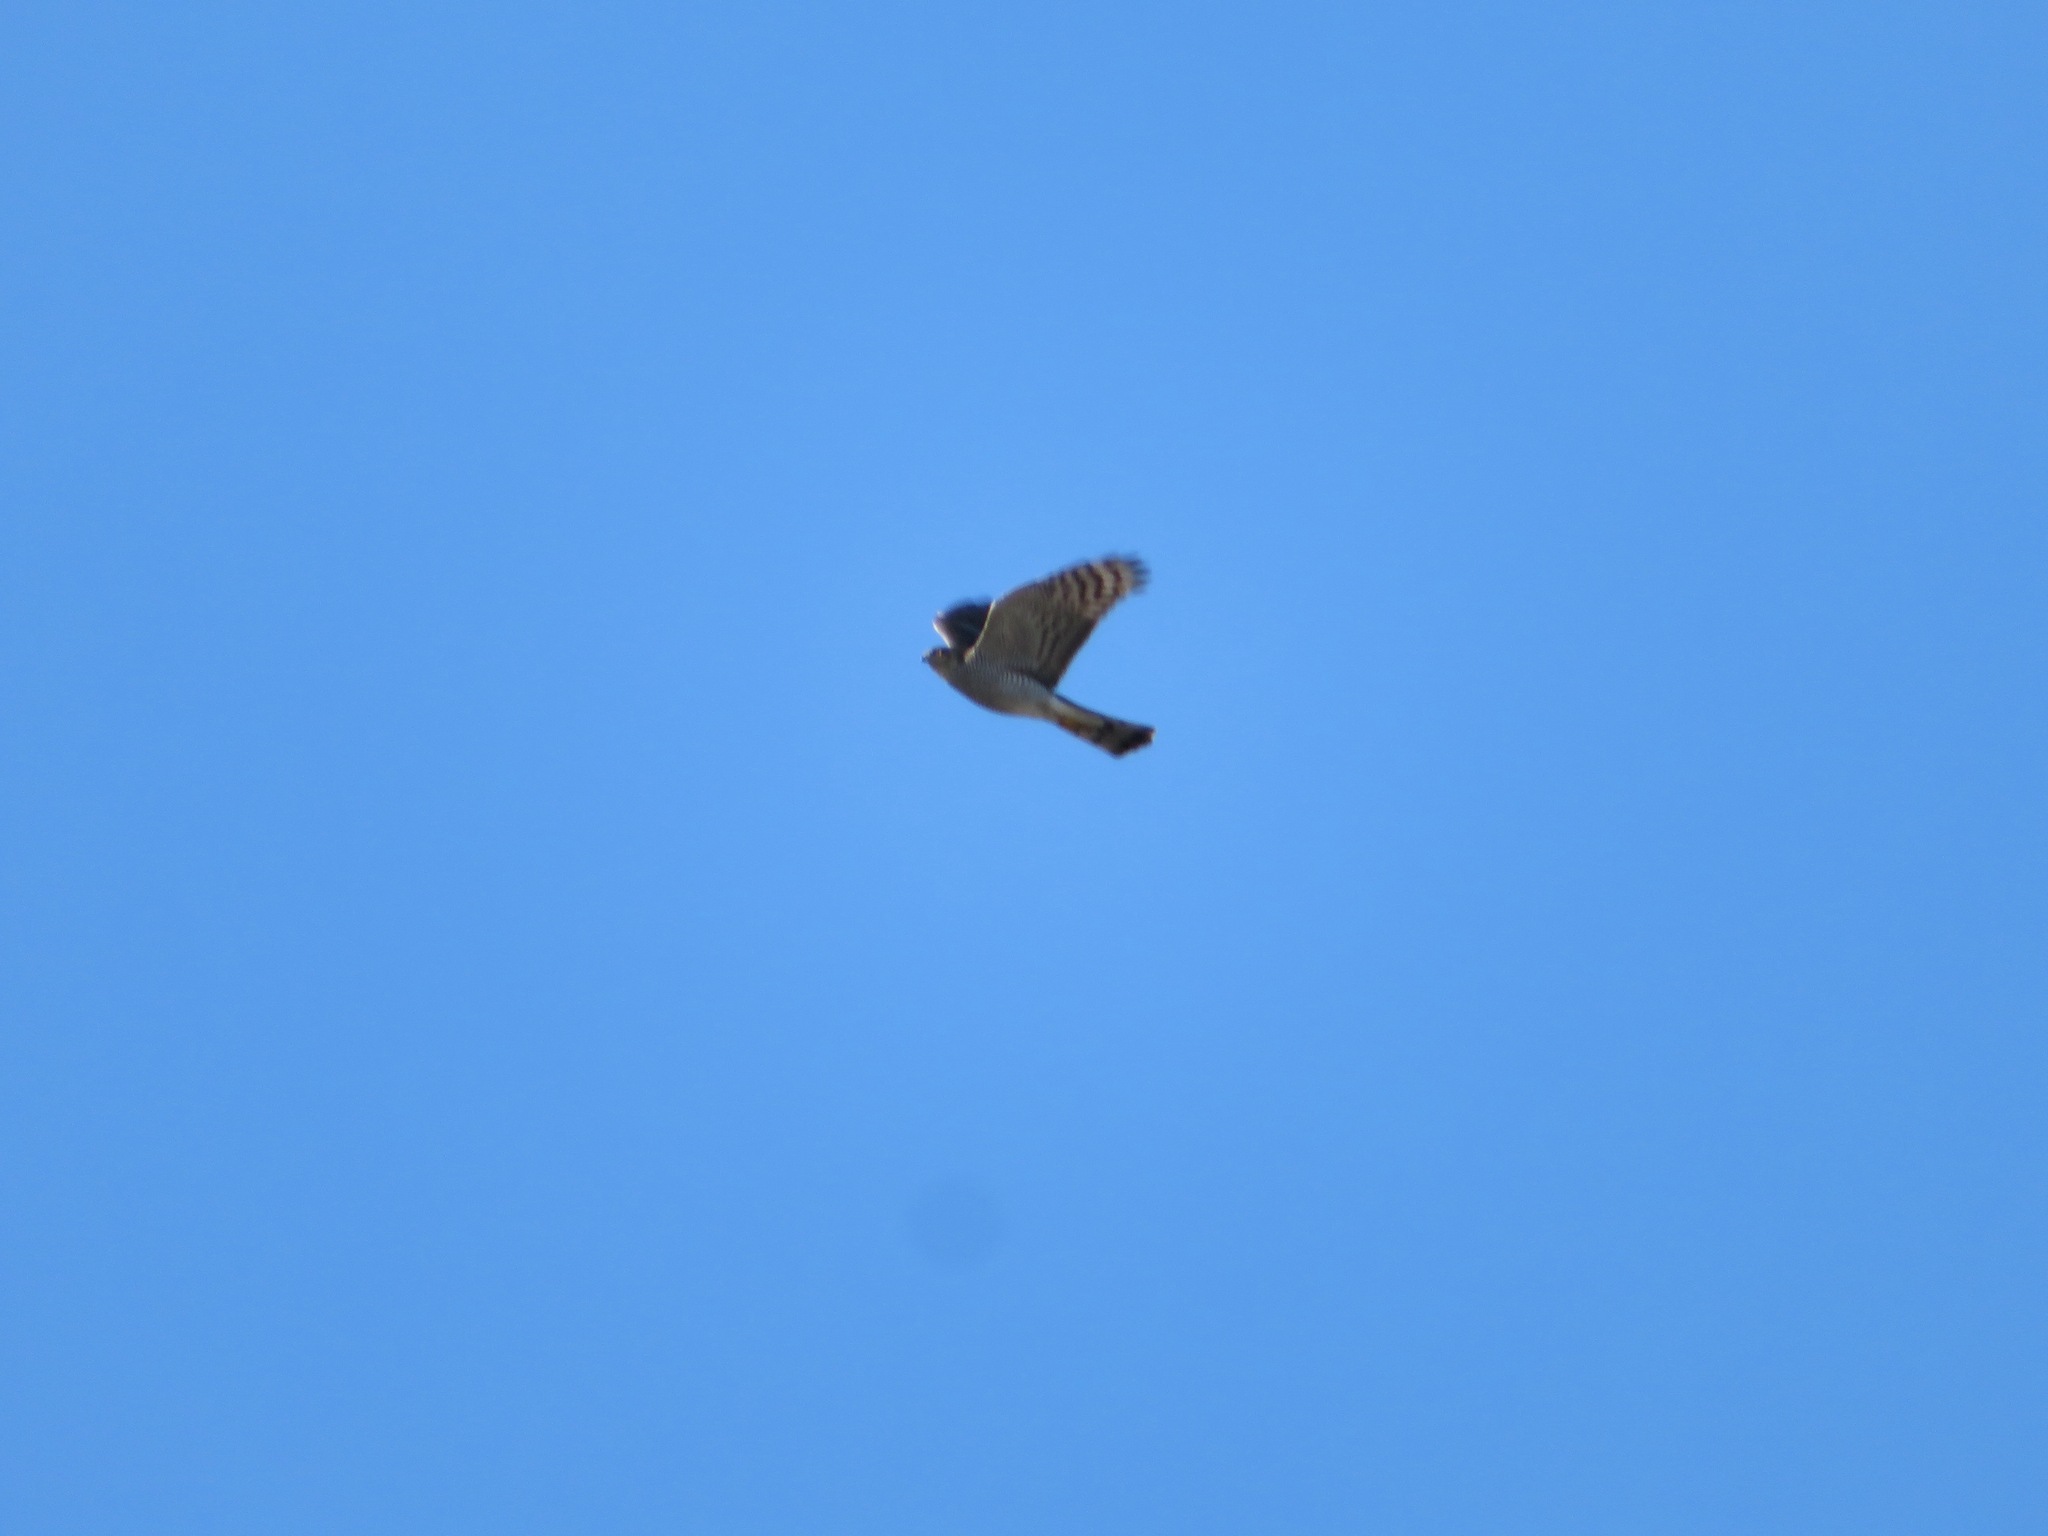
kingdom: Animalia
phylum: Chordata
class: Aves
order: Accipitriformes
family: Accipitridae
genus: Accipiter
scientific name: Accipiter nisus
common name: Eurasian sparrowhawk
